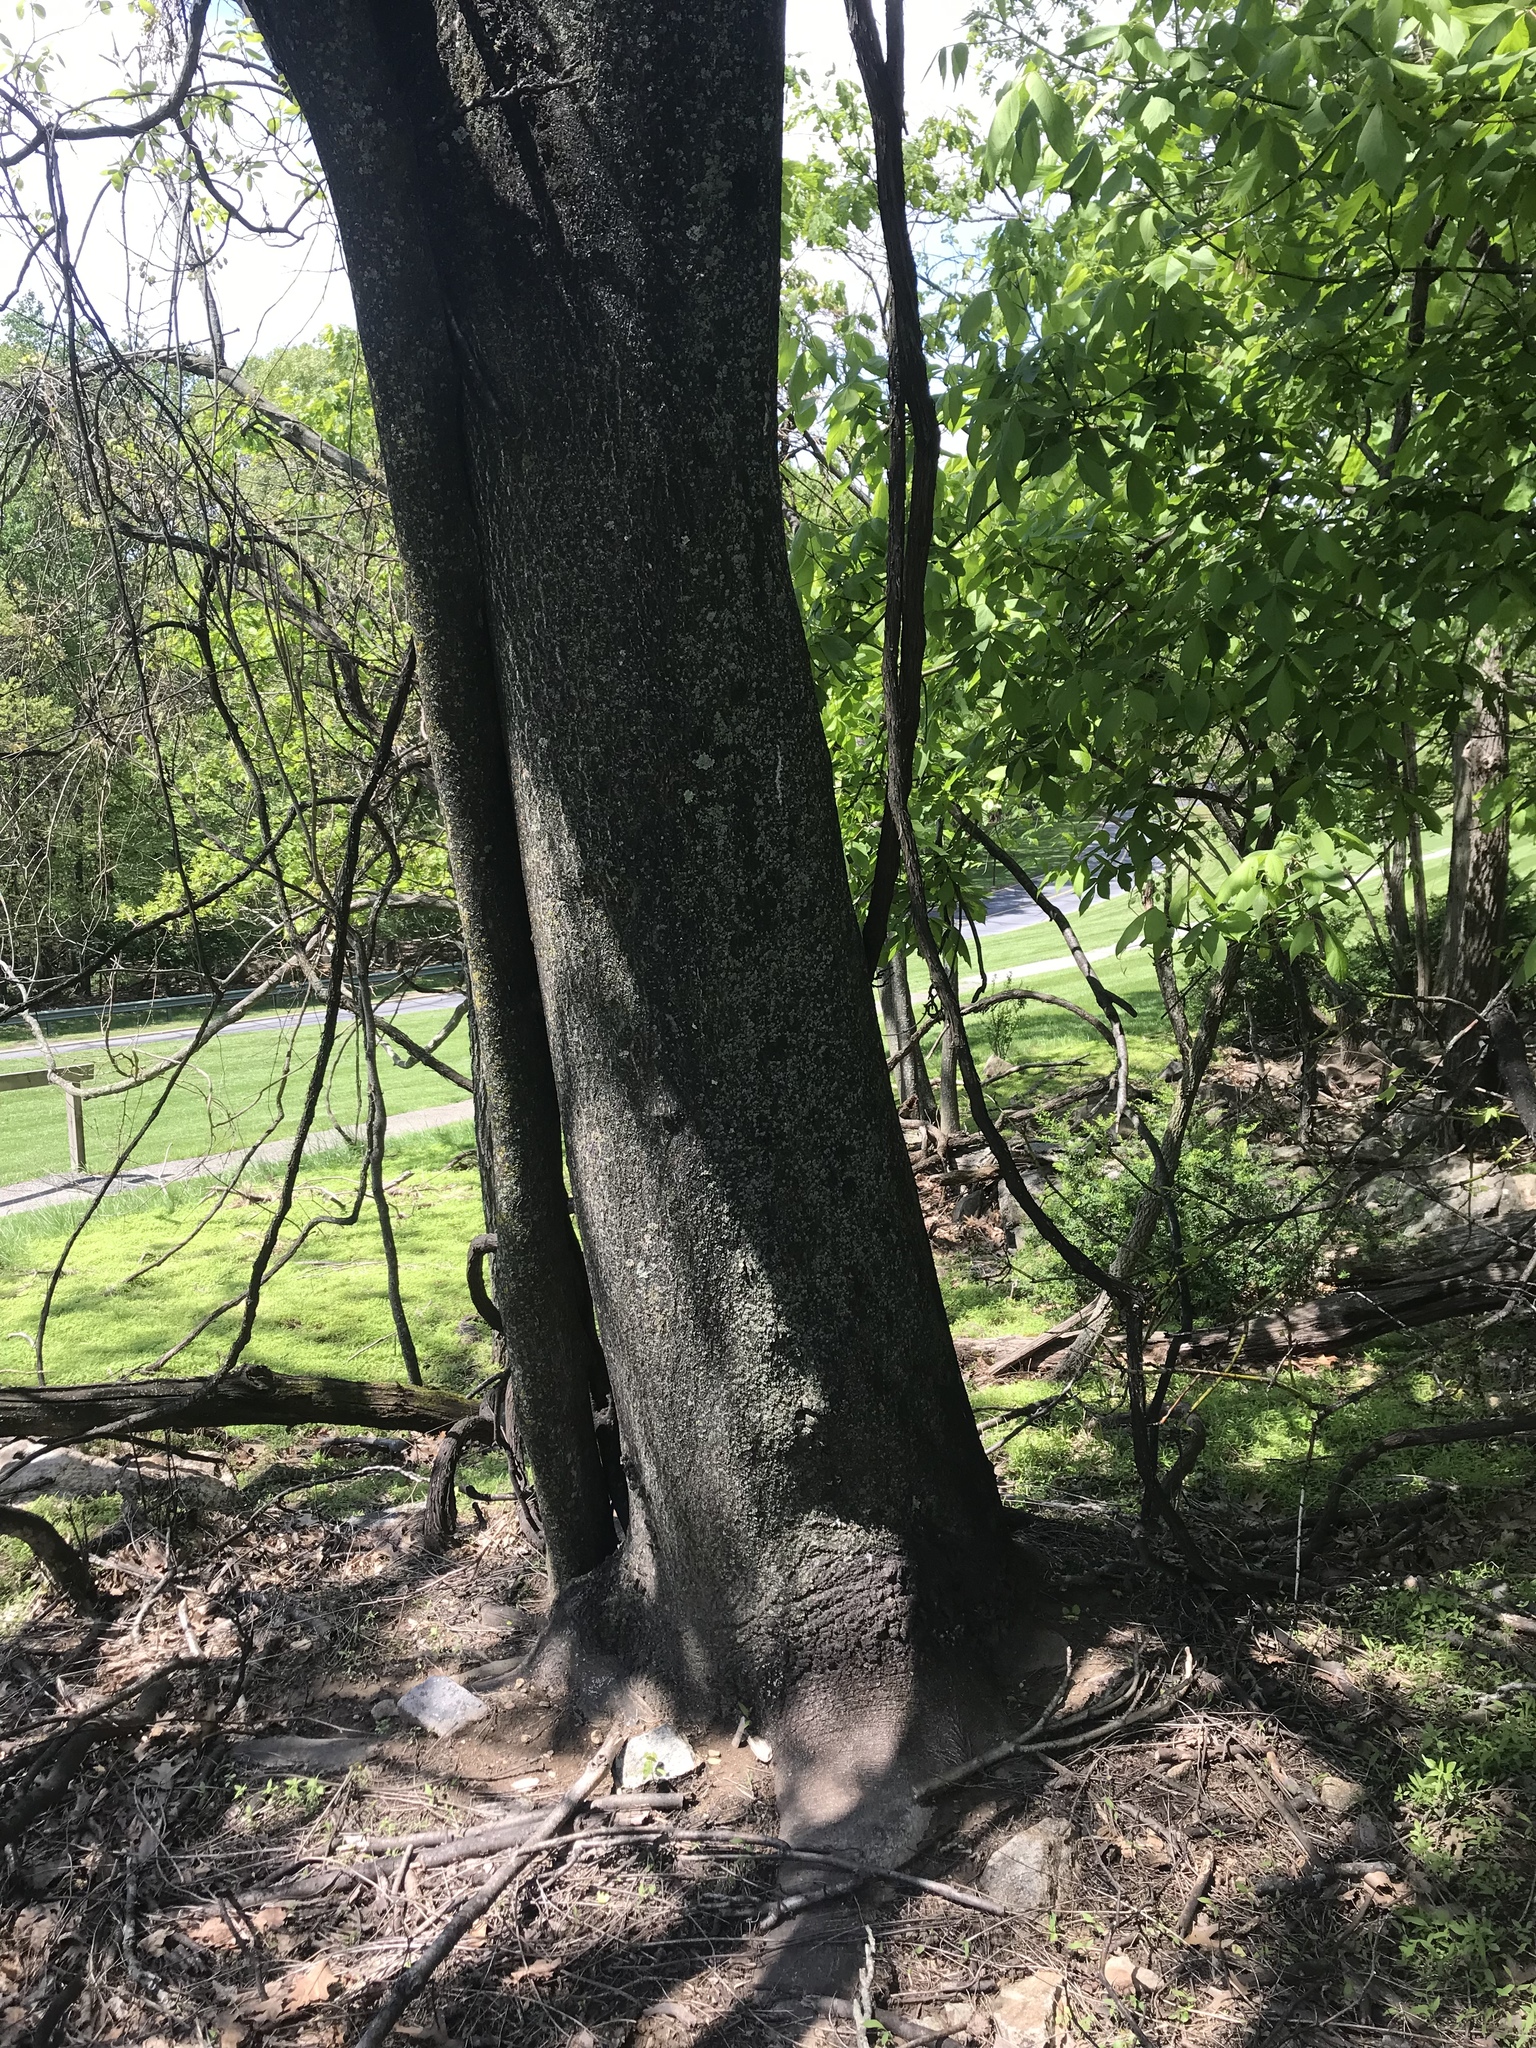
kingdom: Plantae
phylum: Tracheophyta
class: Magnoliopsida
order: Sapindales
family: Simaroubaceae
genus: Ailanthus
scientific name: Ailanthus altissima
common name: Tree-of-heaven
